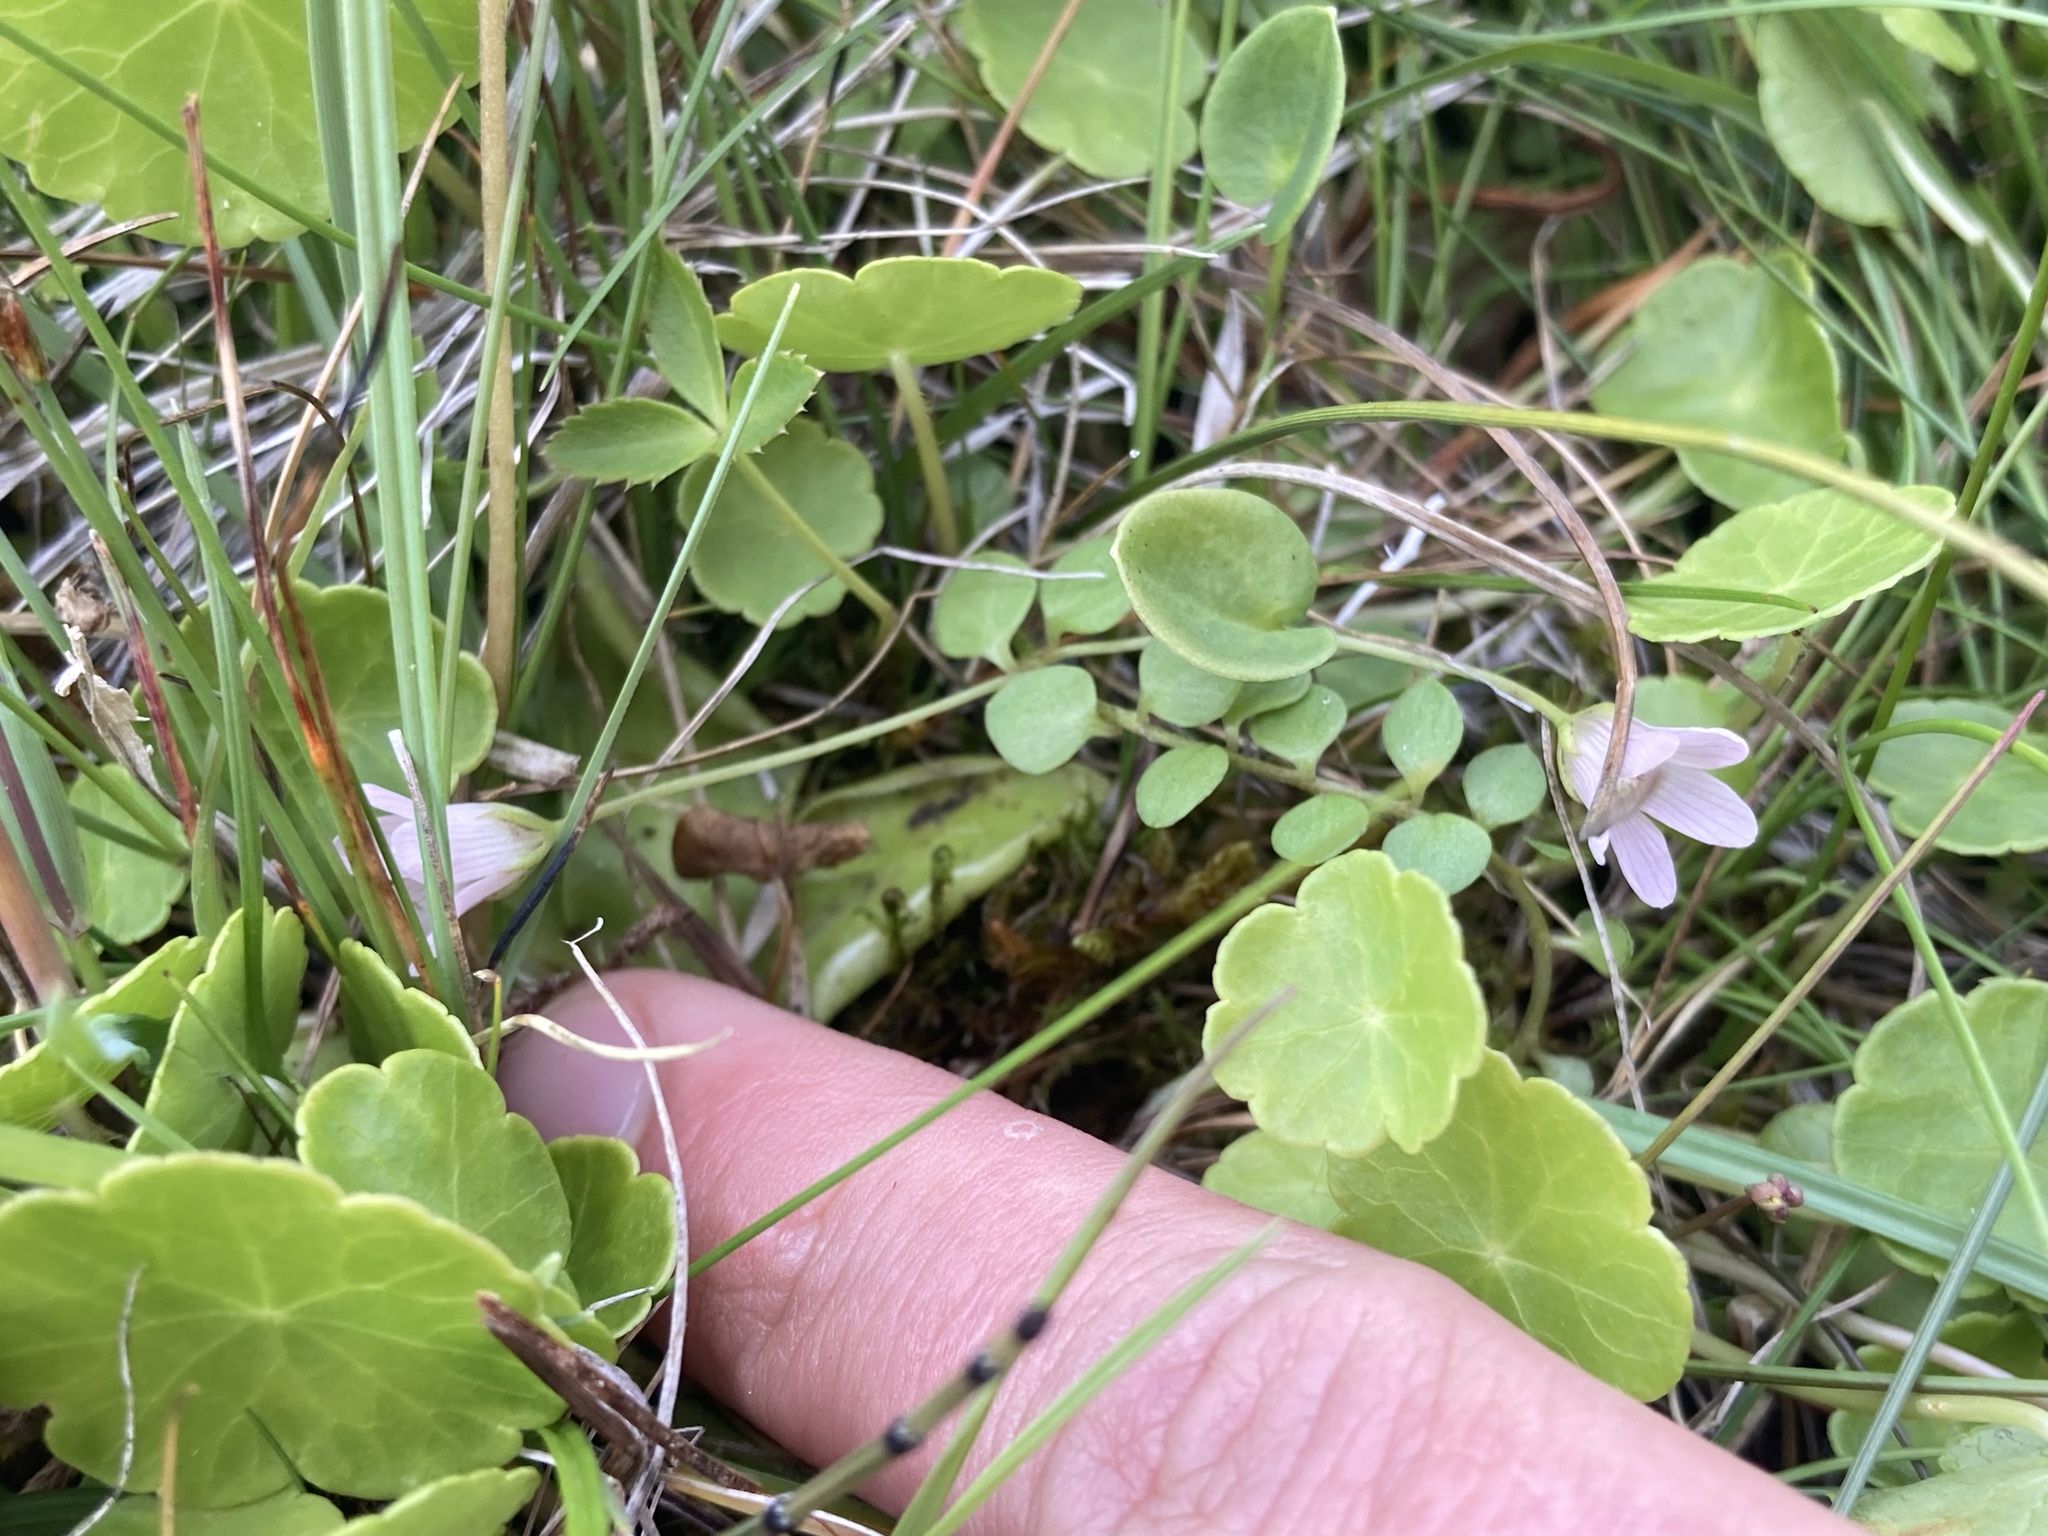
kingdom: Plantae
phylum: Tracheophyta
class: Magnoliopsida
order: Ericales
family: Primulaceae
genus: Lysimachia
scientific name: Lysimachia tenella
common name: European bog pimpernel
